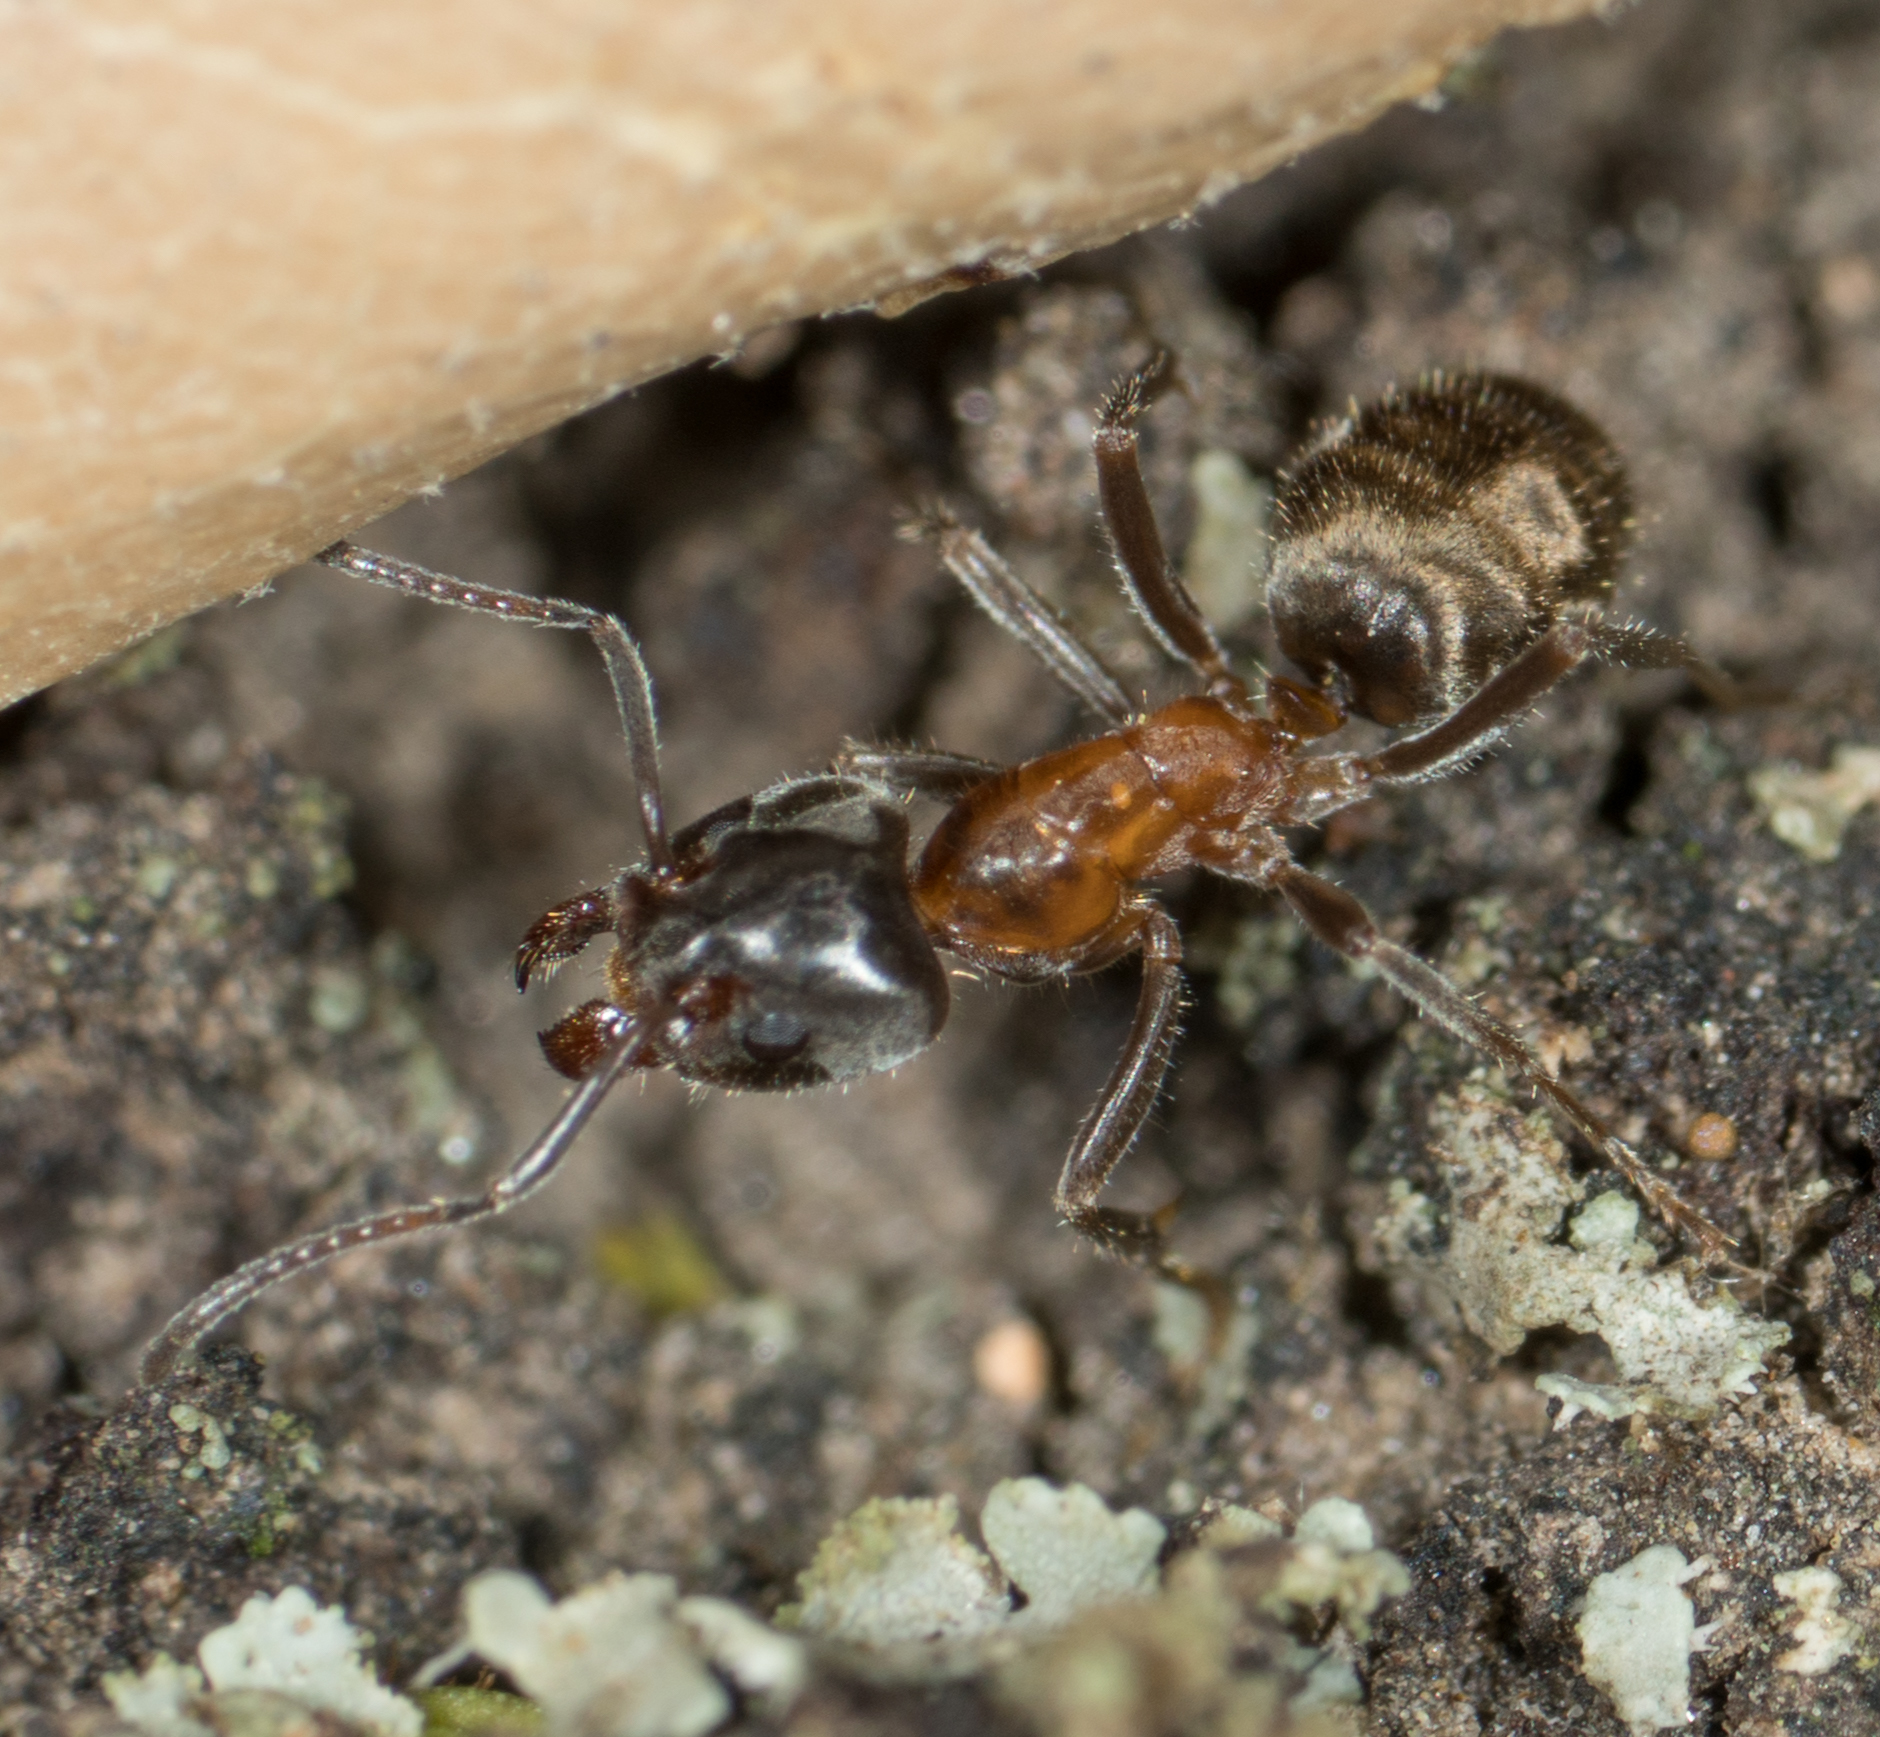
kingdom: Animalia
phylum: Arthropoda
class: Insecta
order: Hymenoptera
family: Formicidae
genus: Liometopum
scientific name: Liometopum occidentale
